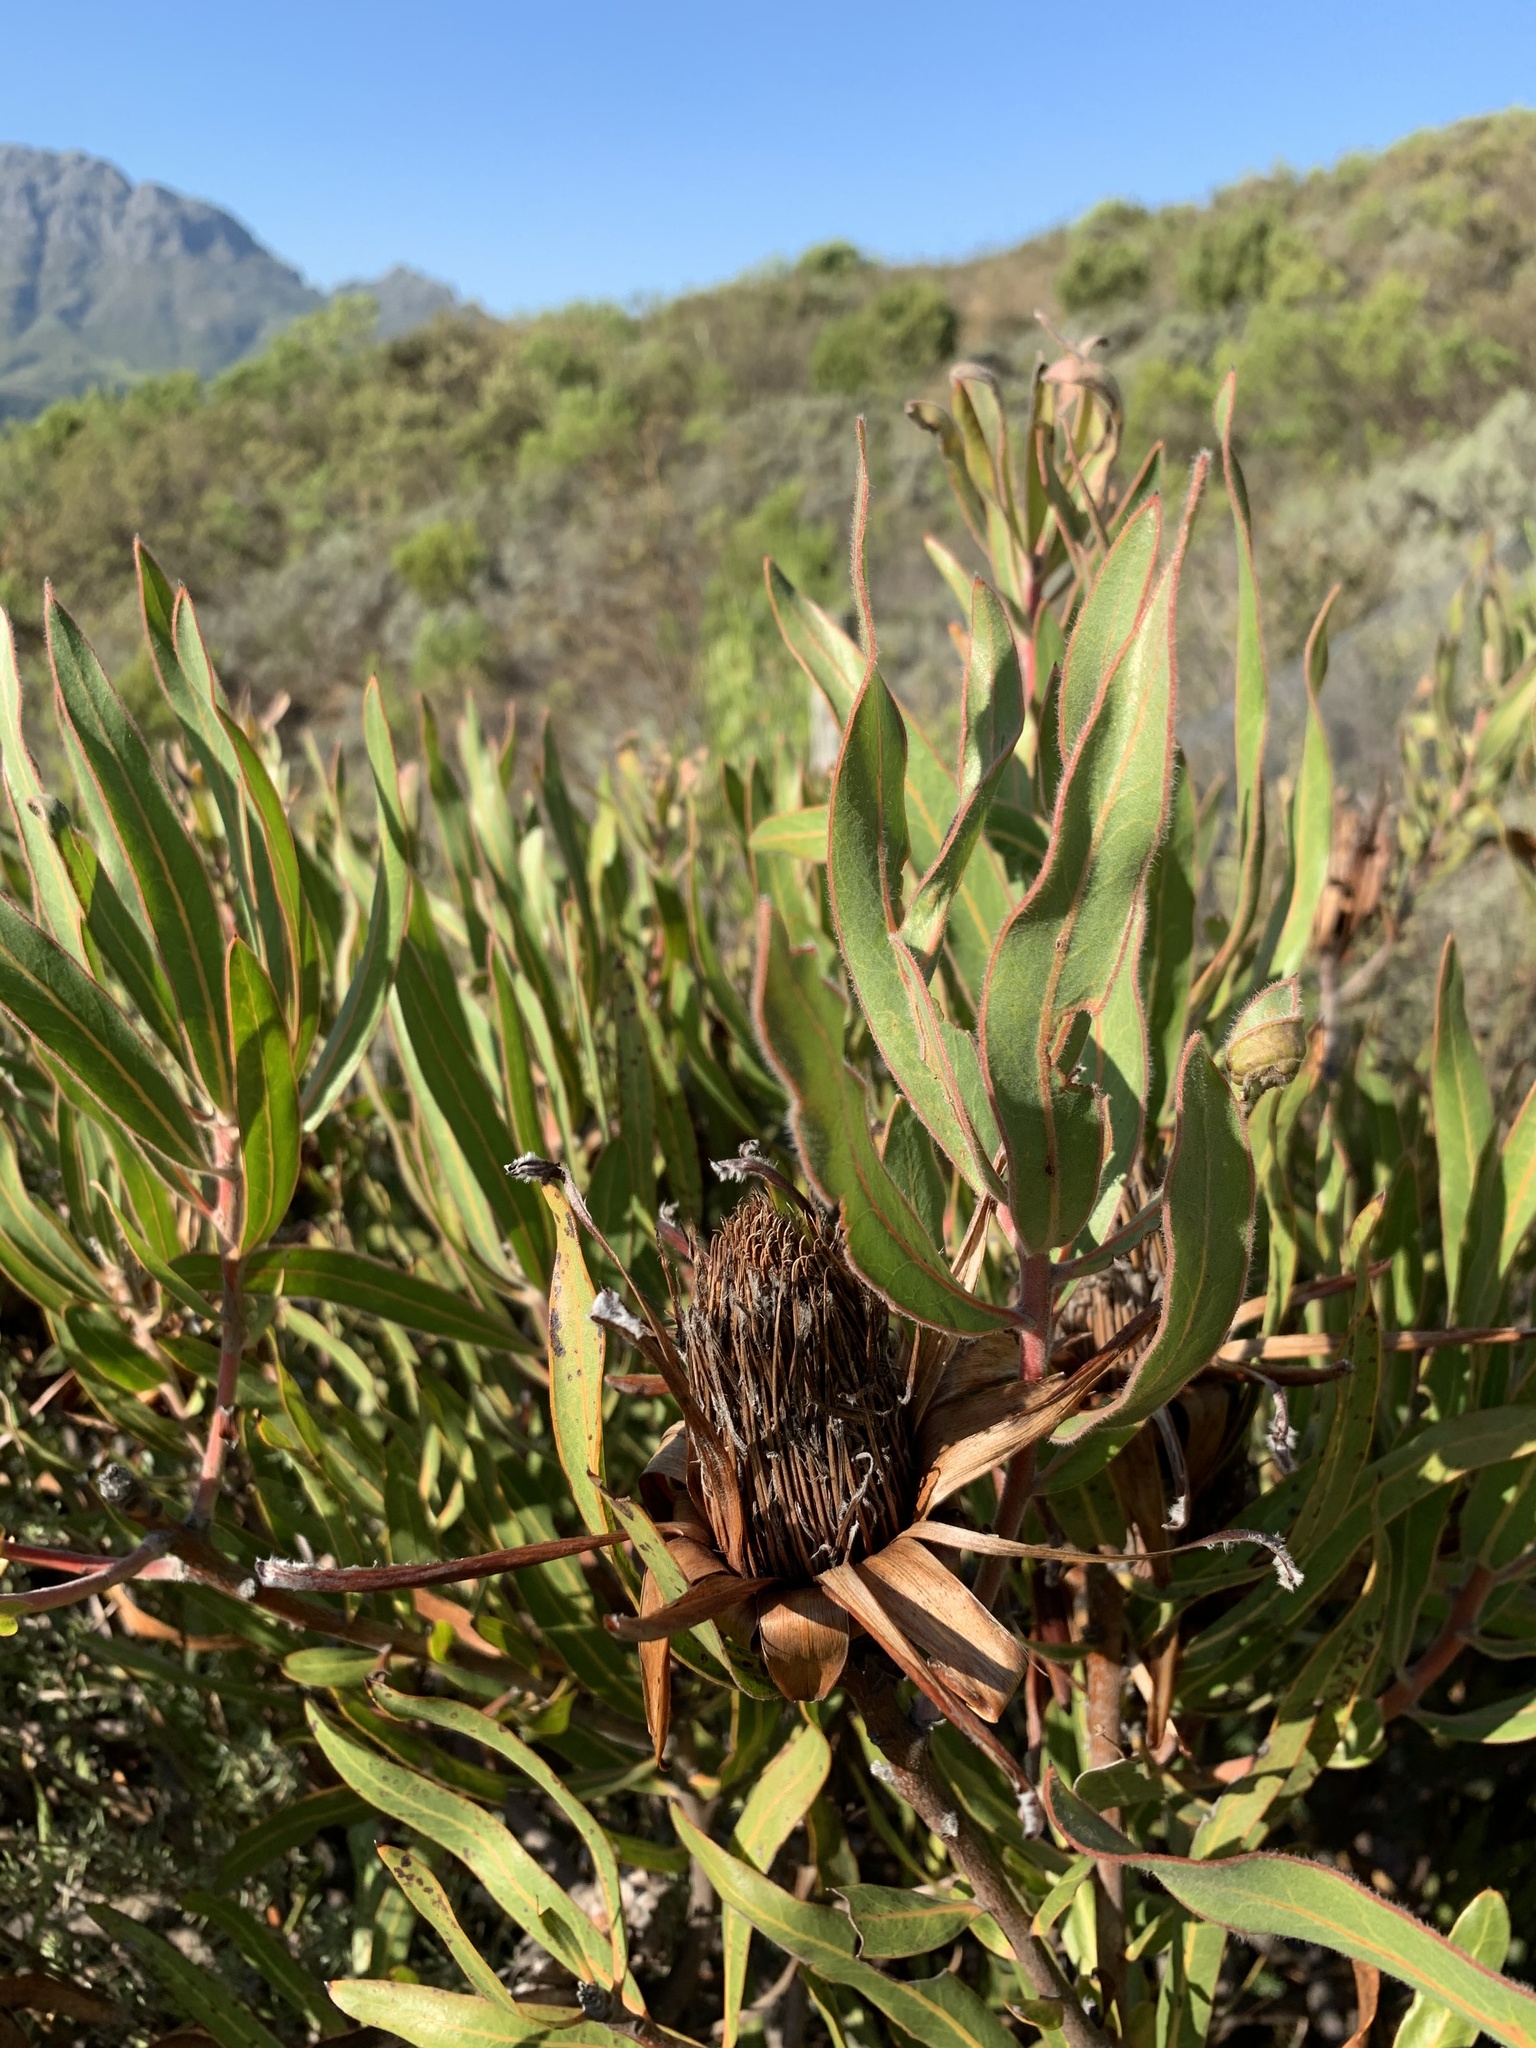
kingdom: Plantae
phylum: Tracheophyta
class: Magnoliopsida
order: Proteales
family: Proteaceae
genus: Protea
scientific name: Protea burchellii
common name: Burchell's sugarbush
